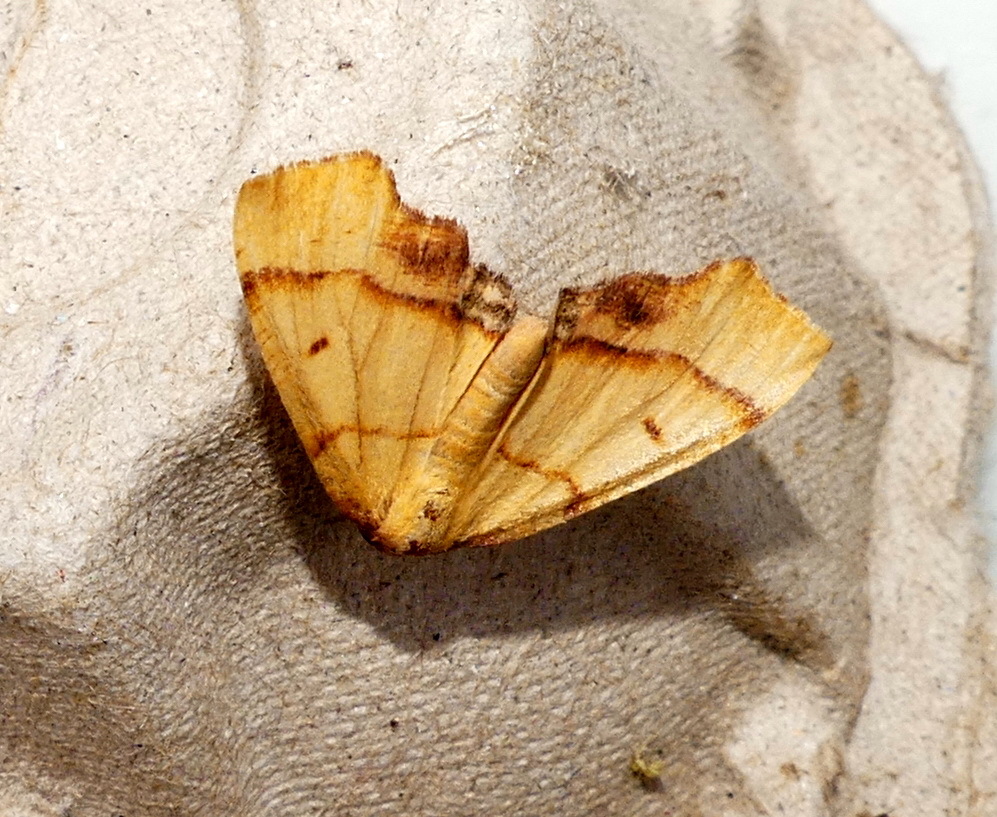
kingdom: Animalia
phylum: Arthropoda
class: Insecta
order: Lepidoptera
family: Geometridae
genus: Plagodis
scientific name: Plagodis phlogosaria
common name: Straight-lined plagodis
